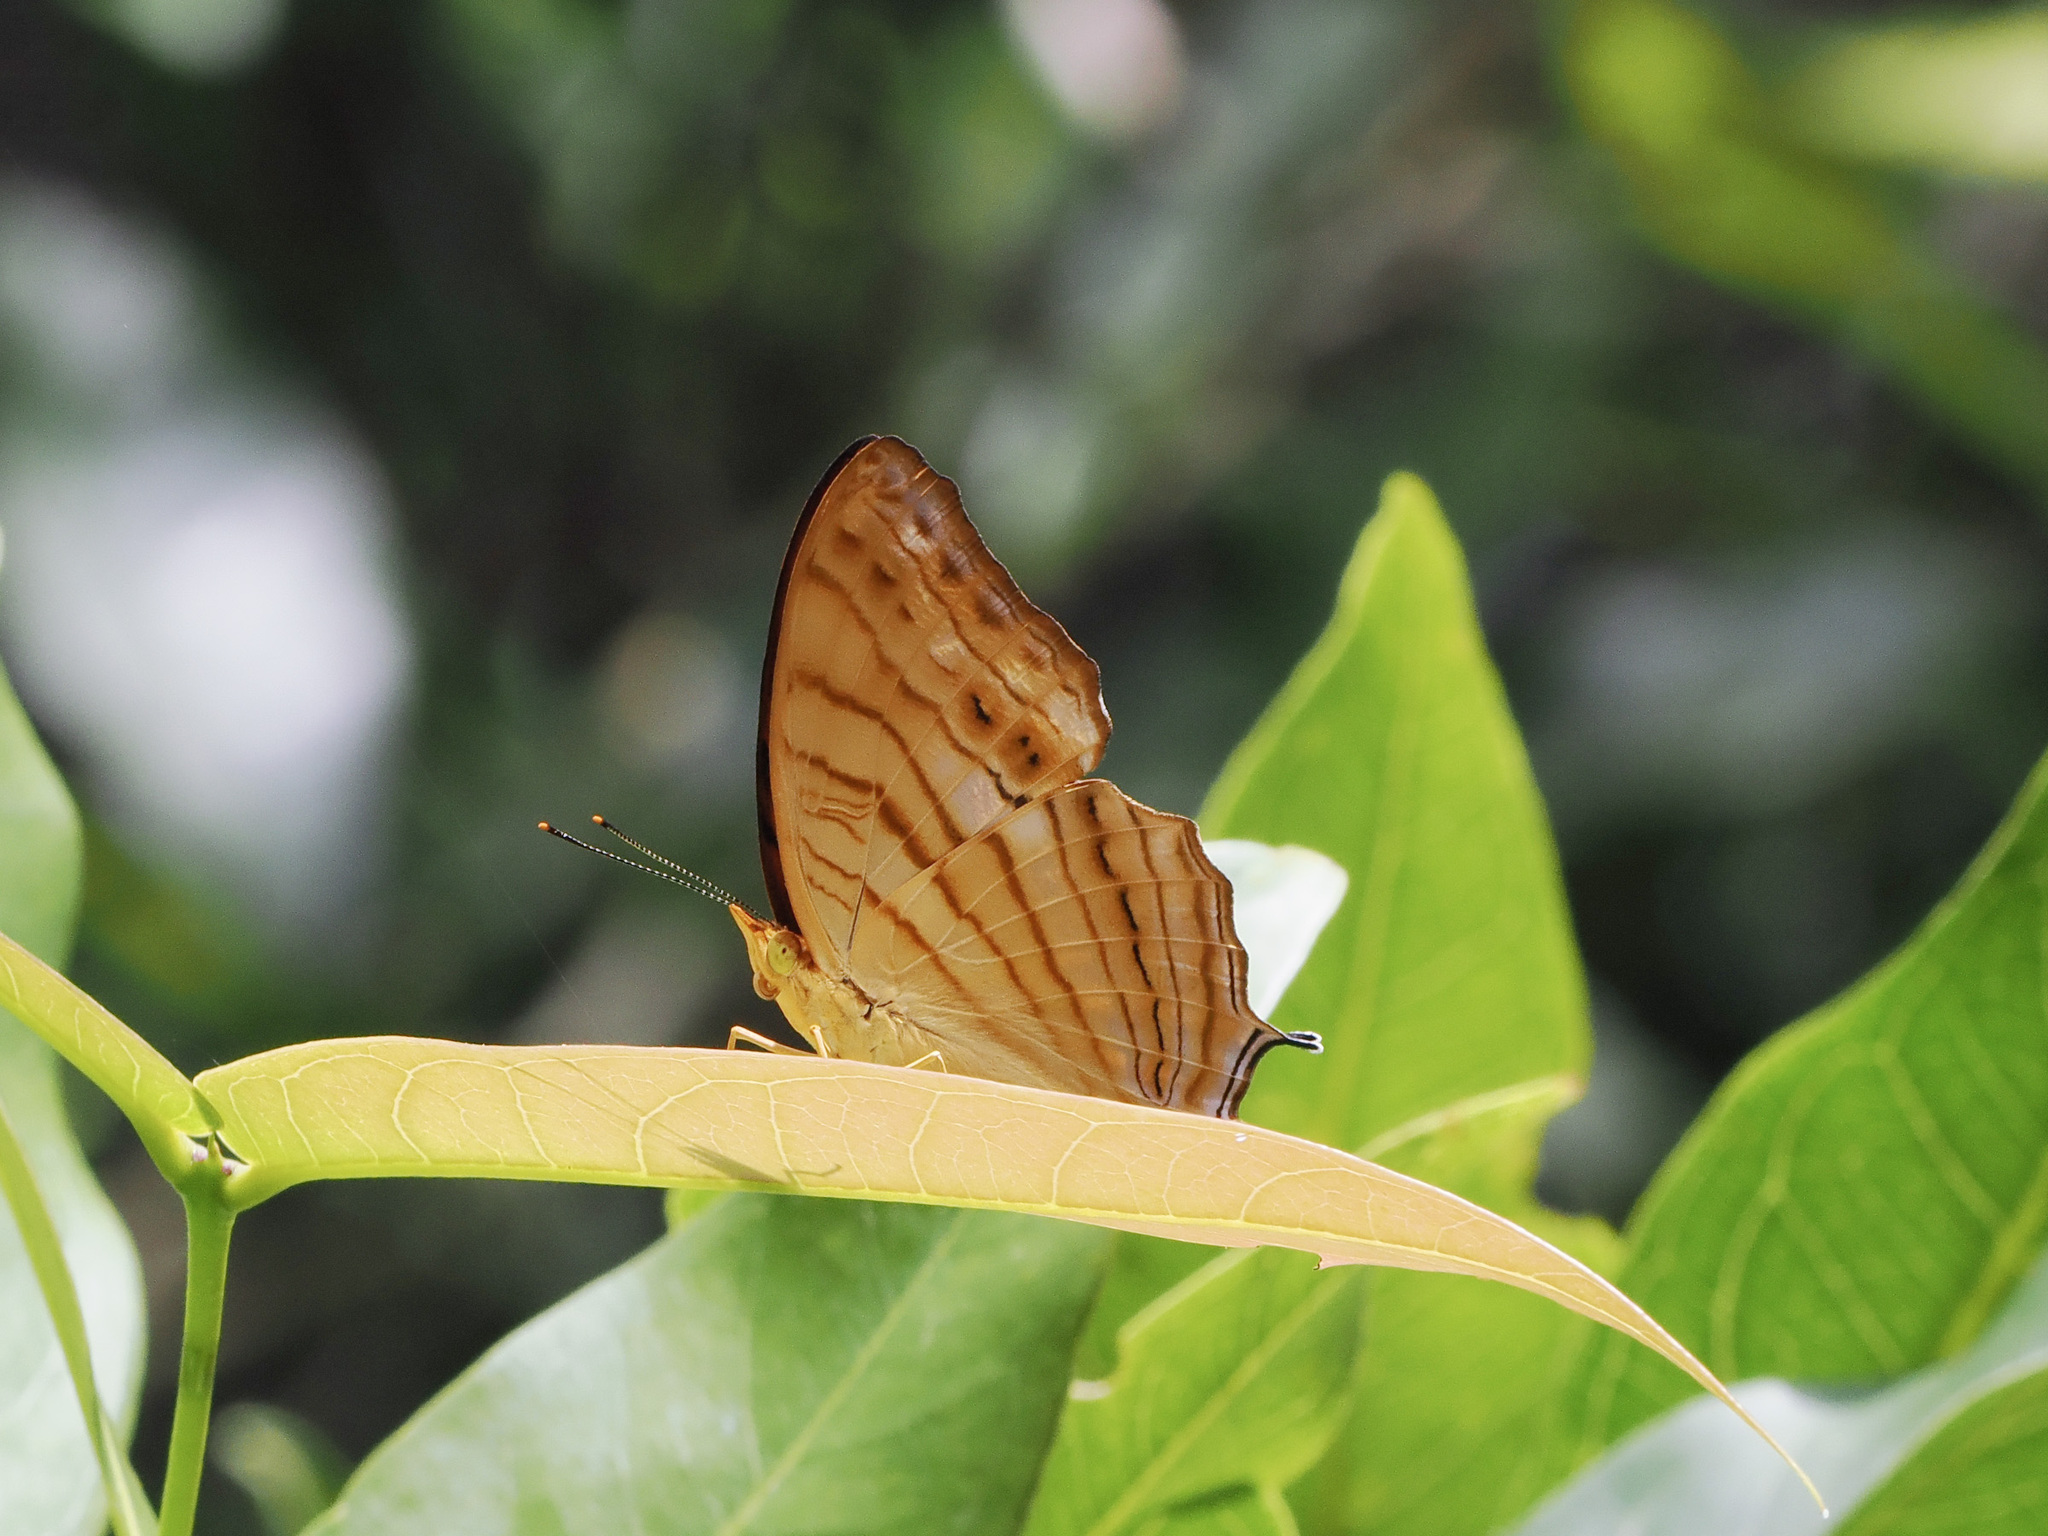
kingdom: Animalia
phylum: Arthropoda
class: Insecta
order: Lepidoptera
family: Nymphalidae
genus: Cyrestis
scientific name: Cyrestis thyonneus
